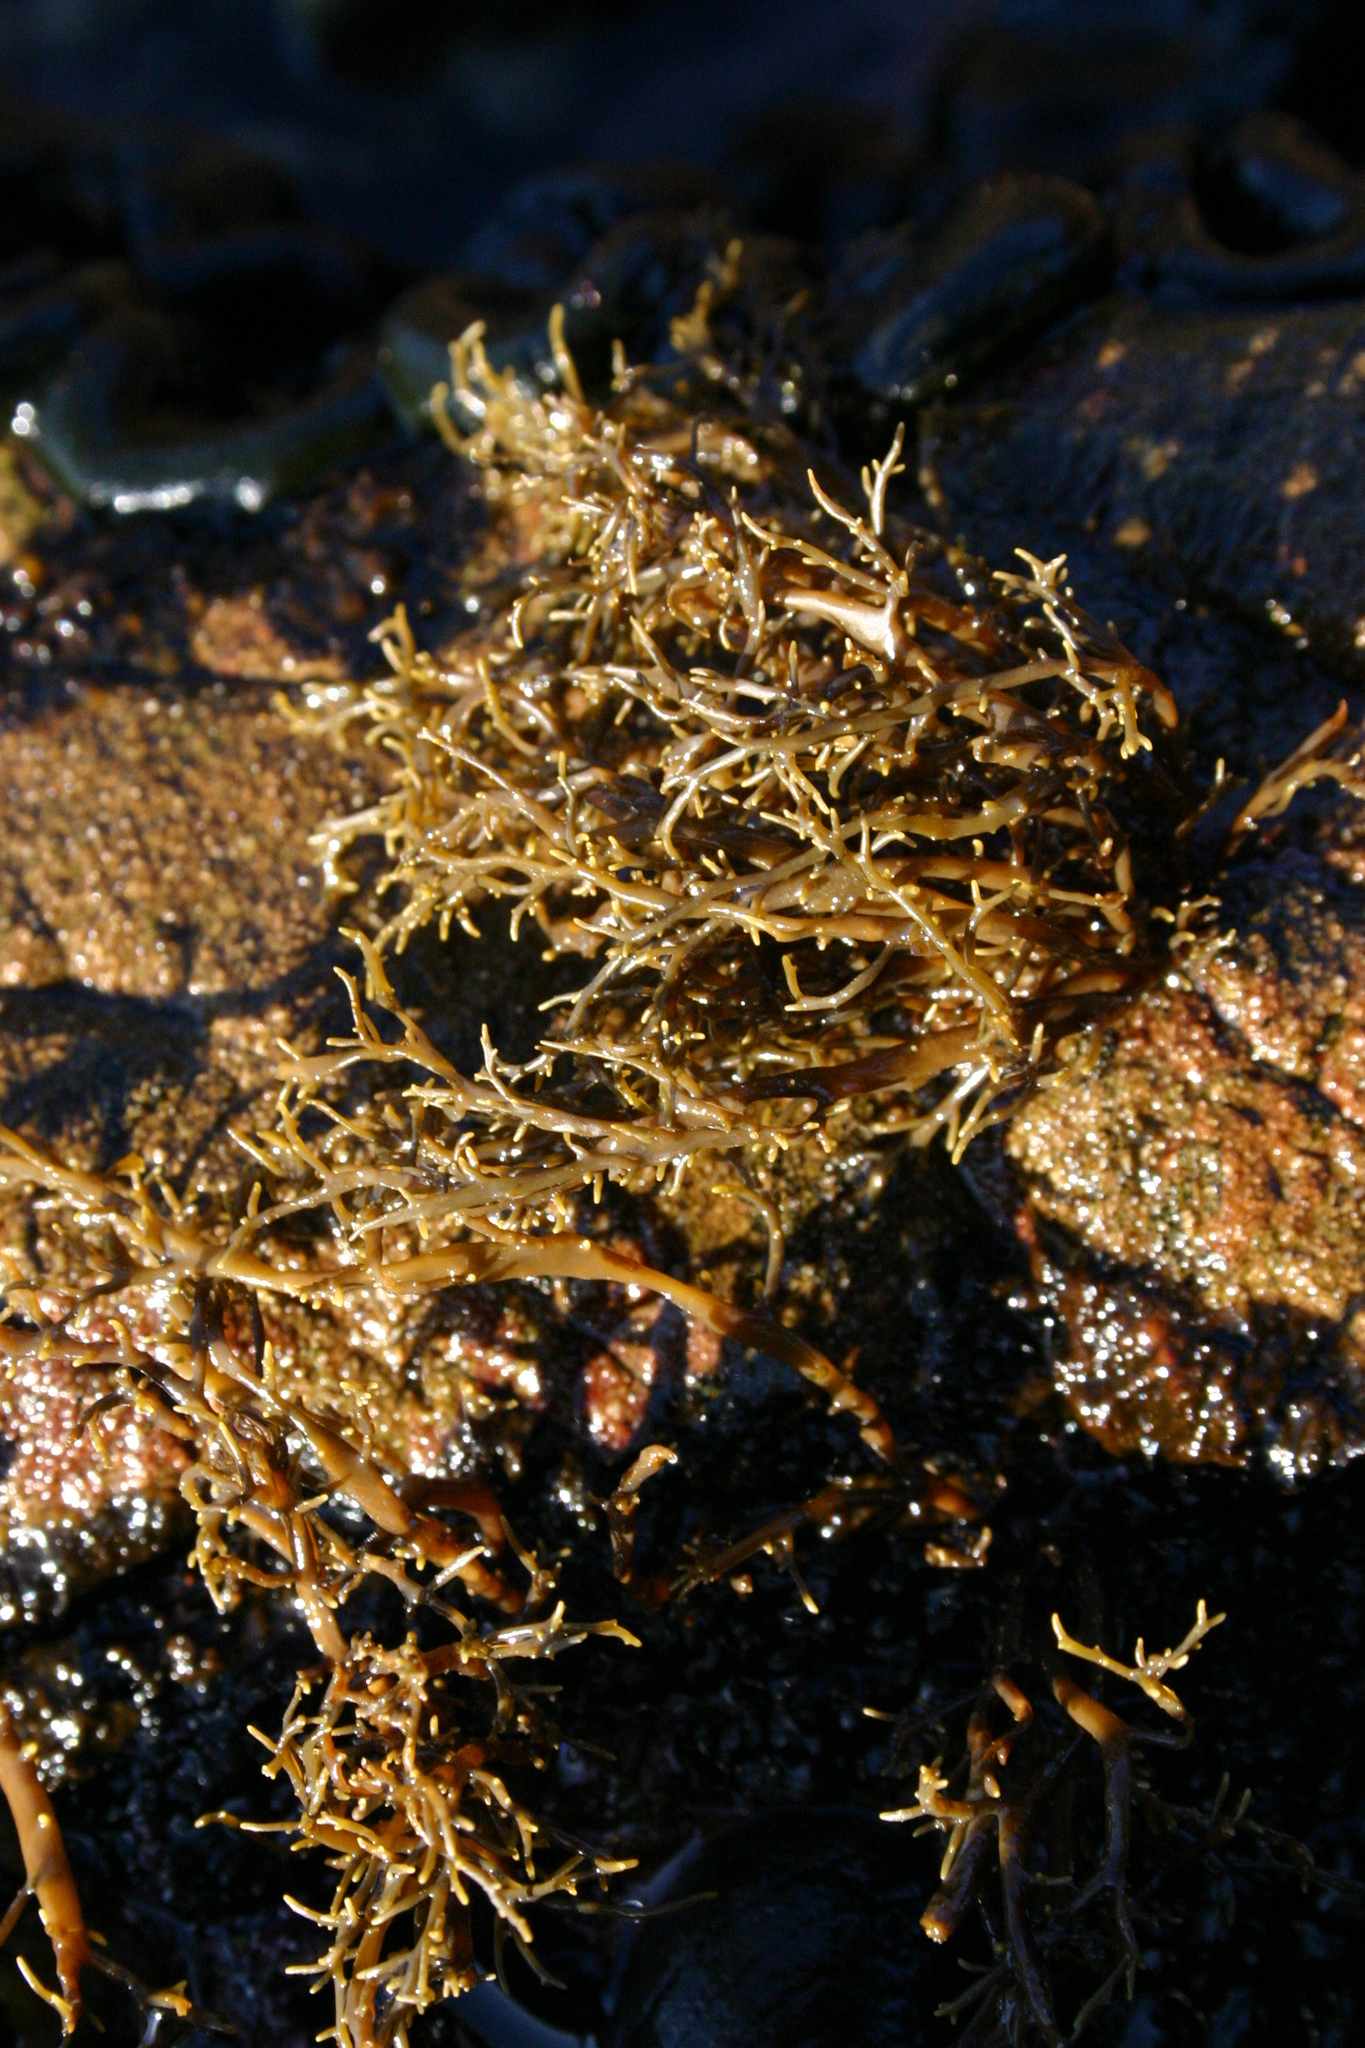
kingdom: Chromista
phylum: Ochrophyta
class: Phaeophyceae
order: Scytothamnales
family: Scytothamnaceae
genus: Scytothamnus
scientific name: Scytothamnus australis
